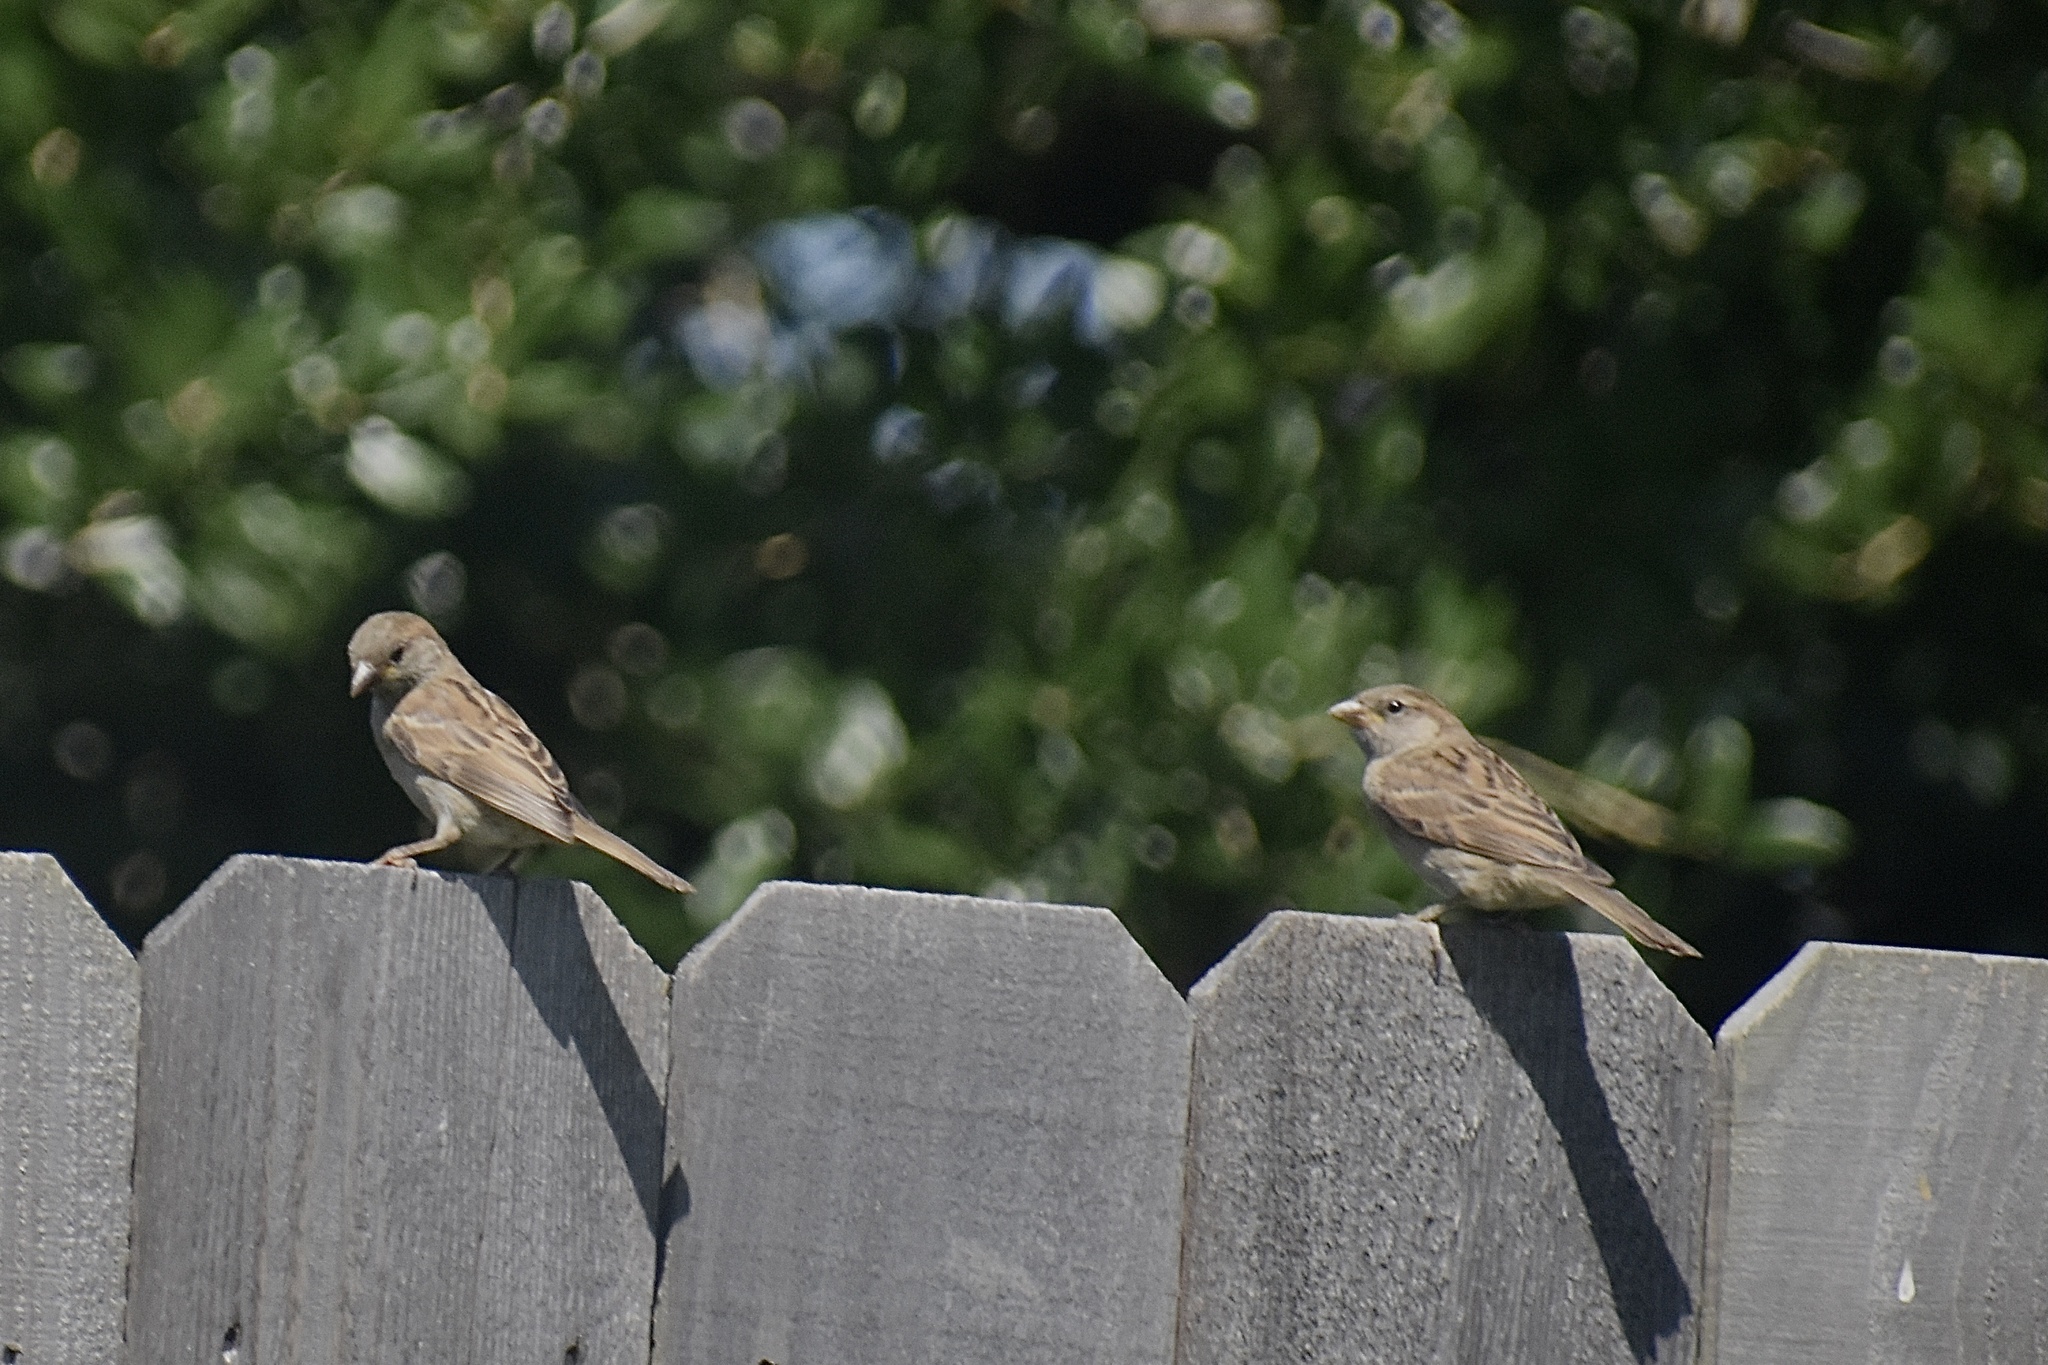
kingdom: Animalia
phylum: Chordata
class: Aves
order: Passeriformes
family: Passeridae
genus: Passer
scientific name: Passer domesticus
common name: House sparrow
